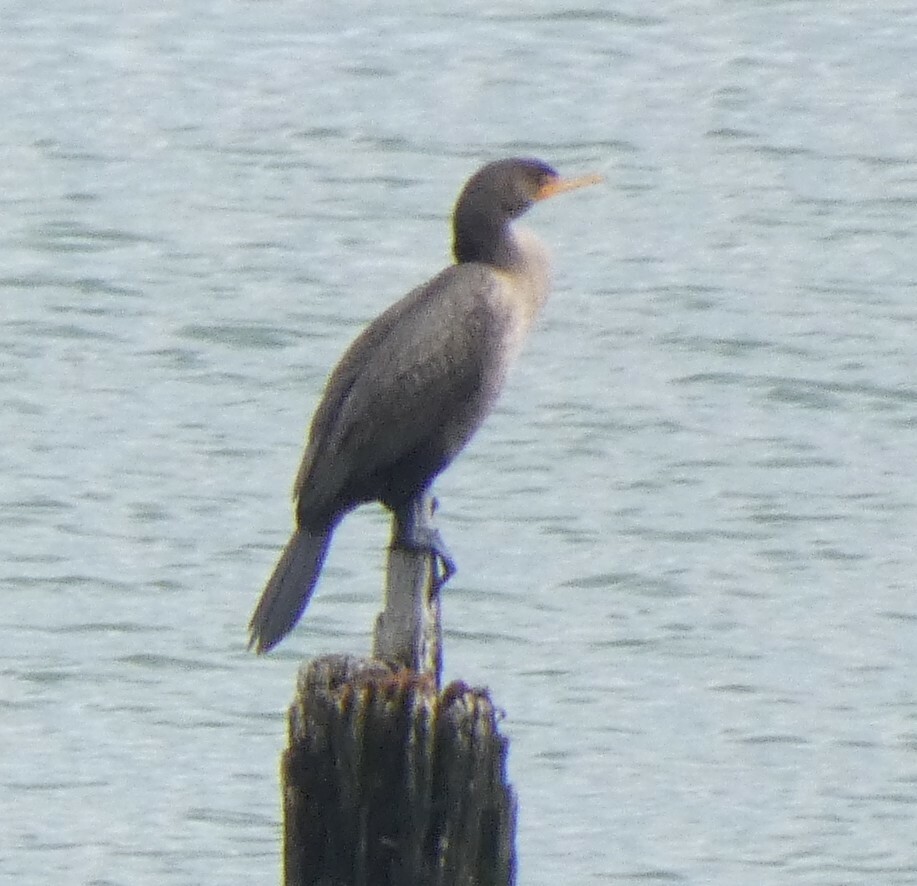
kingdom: Animalia
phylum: Chordata
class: Aves
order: Suliformes
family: Phalacrocoracidae
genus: Phalacrocorax
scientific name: Phalacrocorax auritus
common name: Double-crested cormorant
